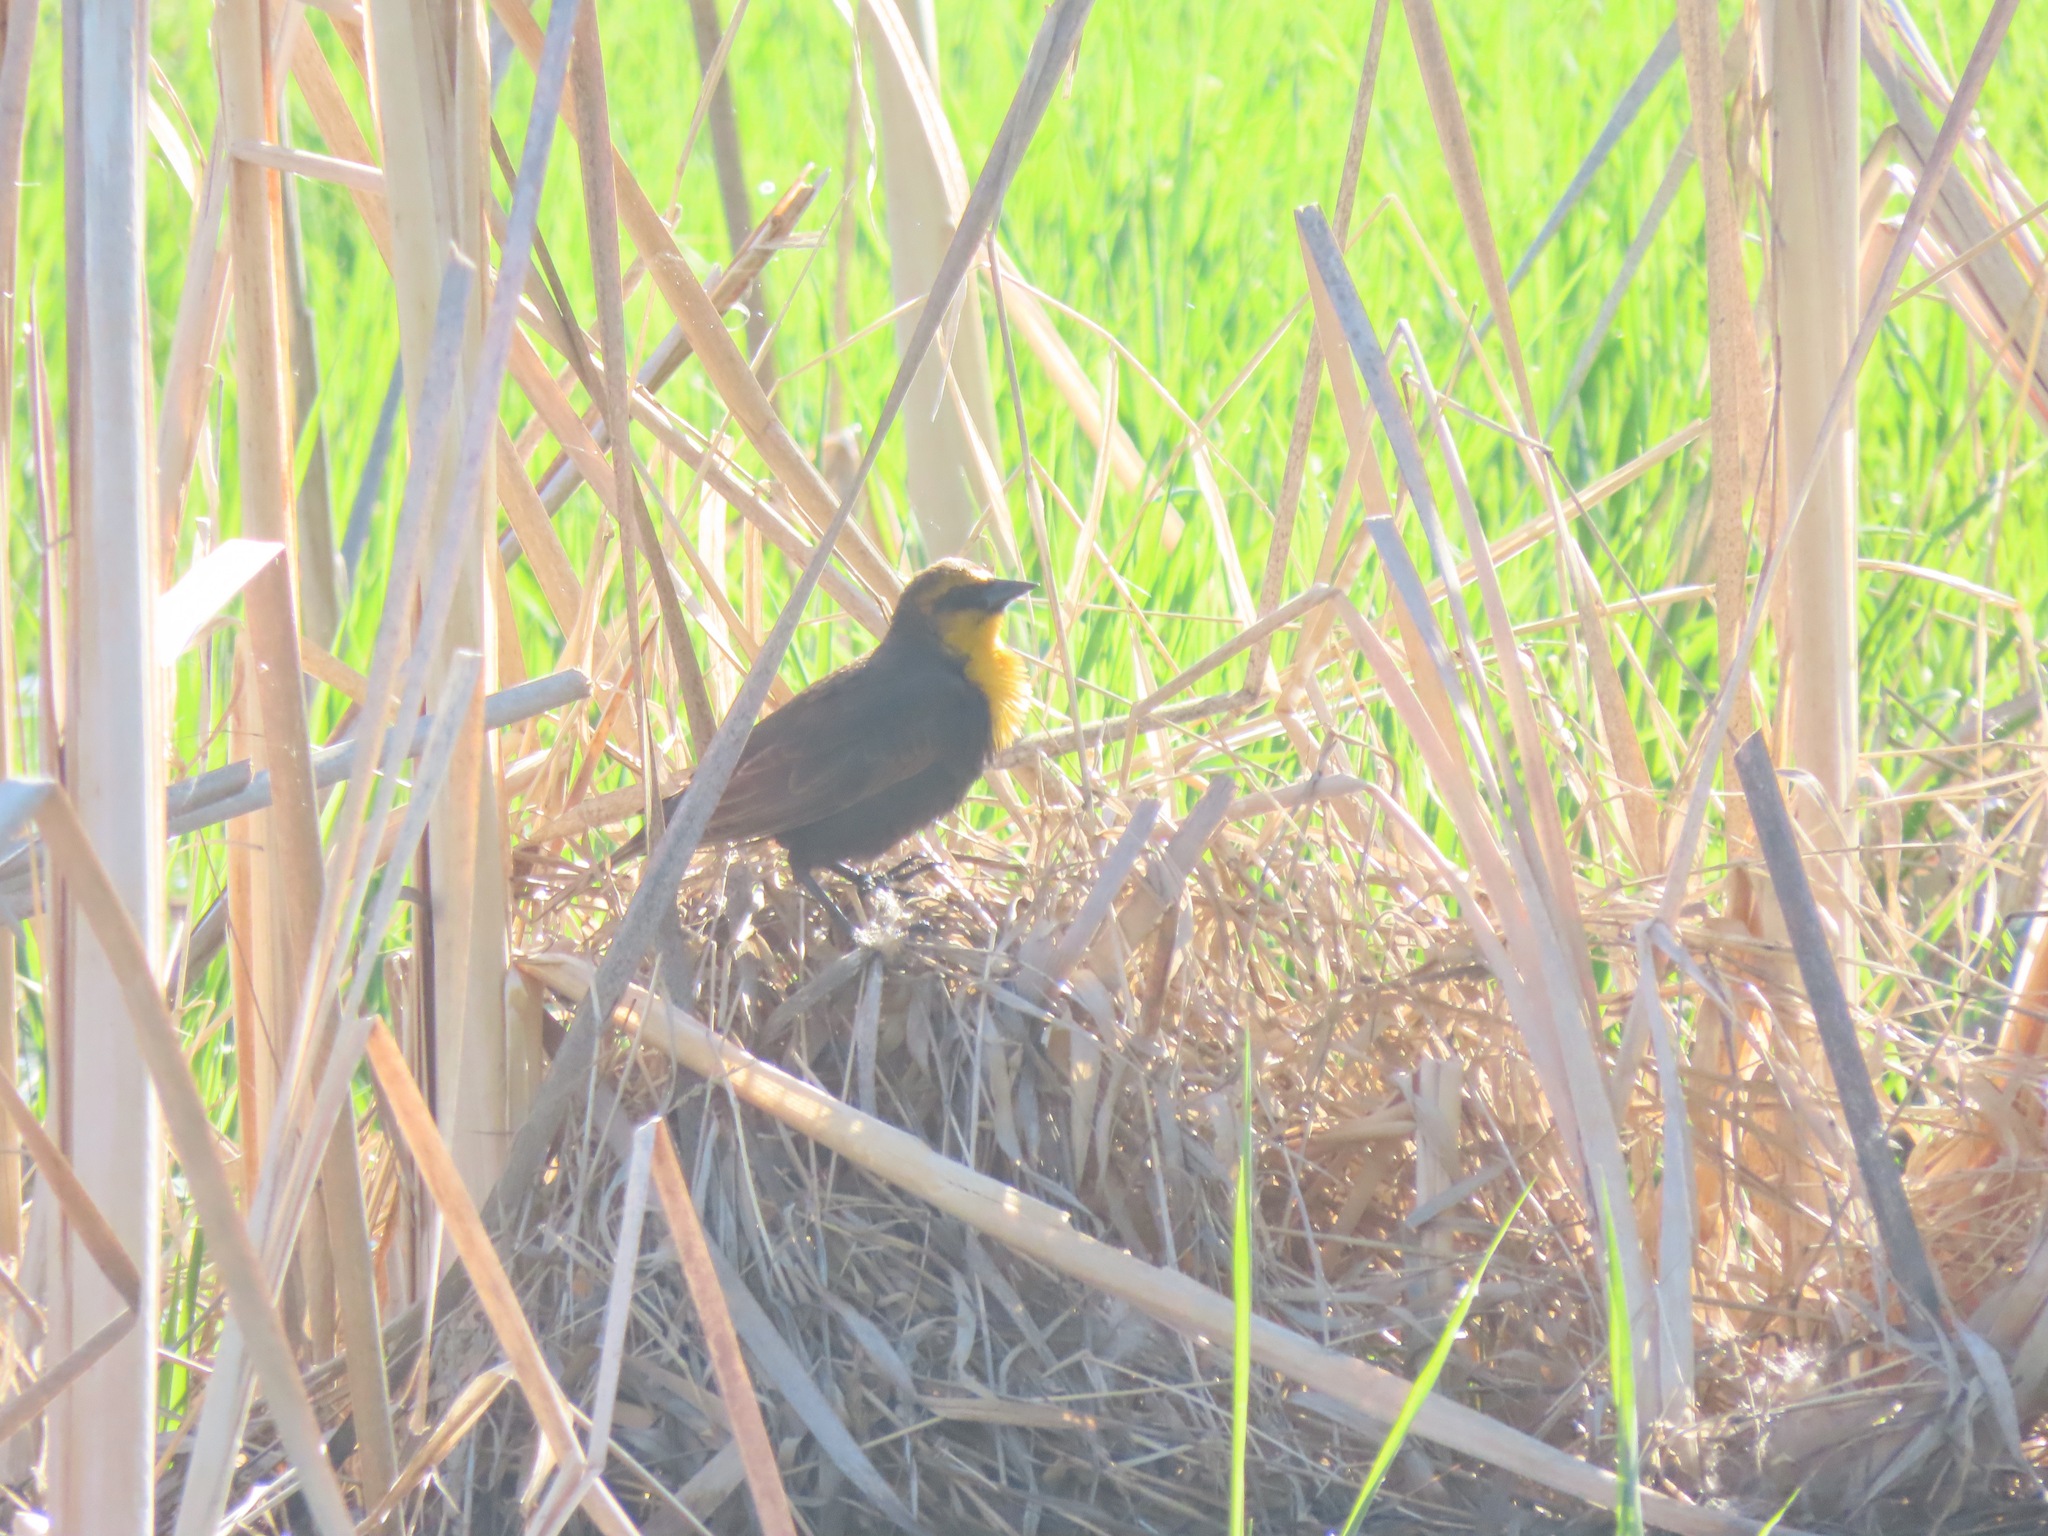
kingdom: Animalia
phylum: Chordata
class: Aves
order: Passeriformes
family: Icteridae
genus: Xanthocephalus
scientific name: Xanthocephalus xanthocephalus
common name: Yellow-headed blackbird
